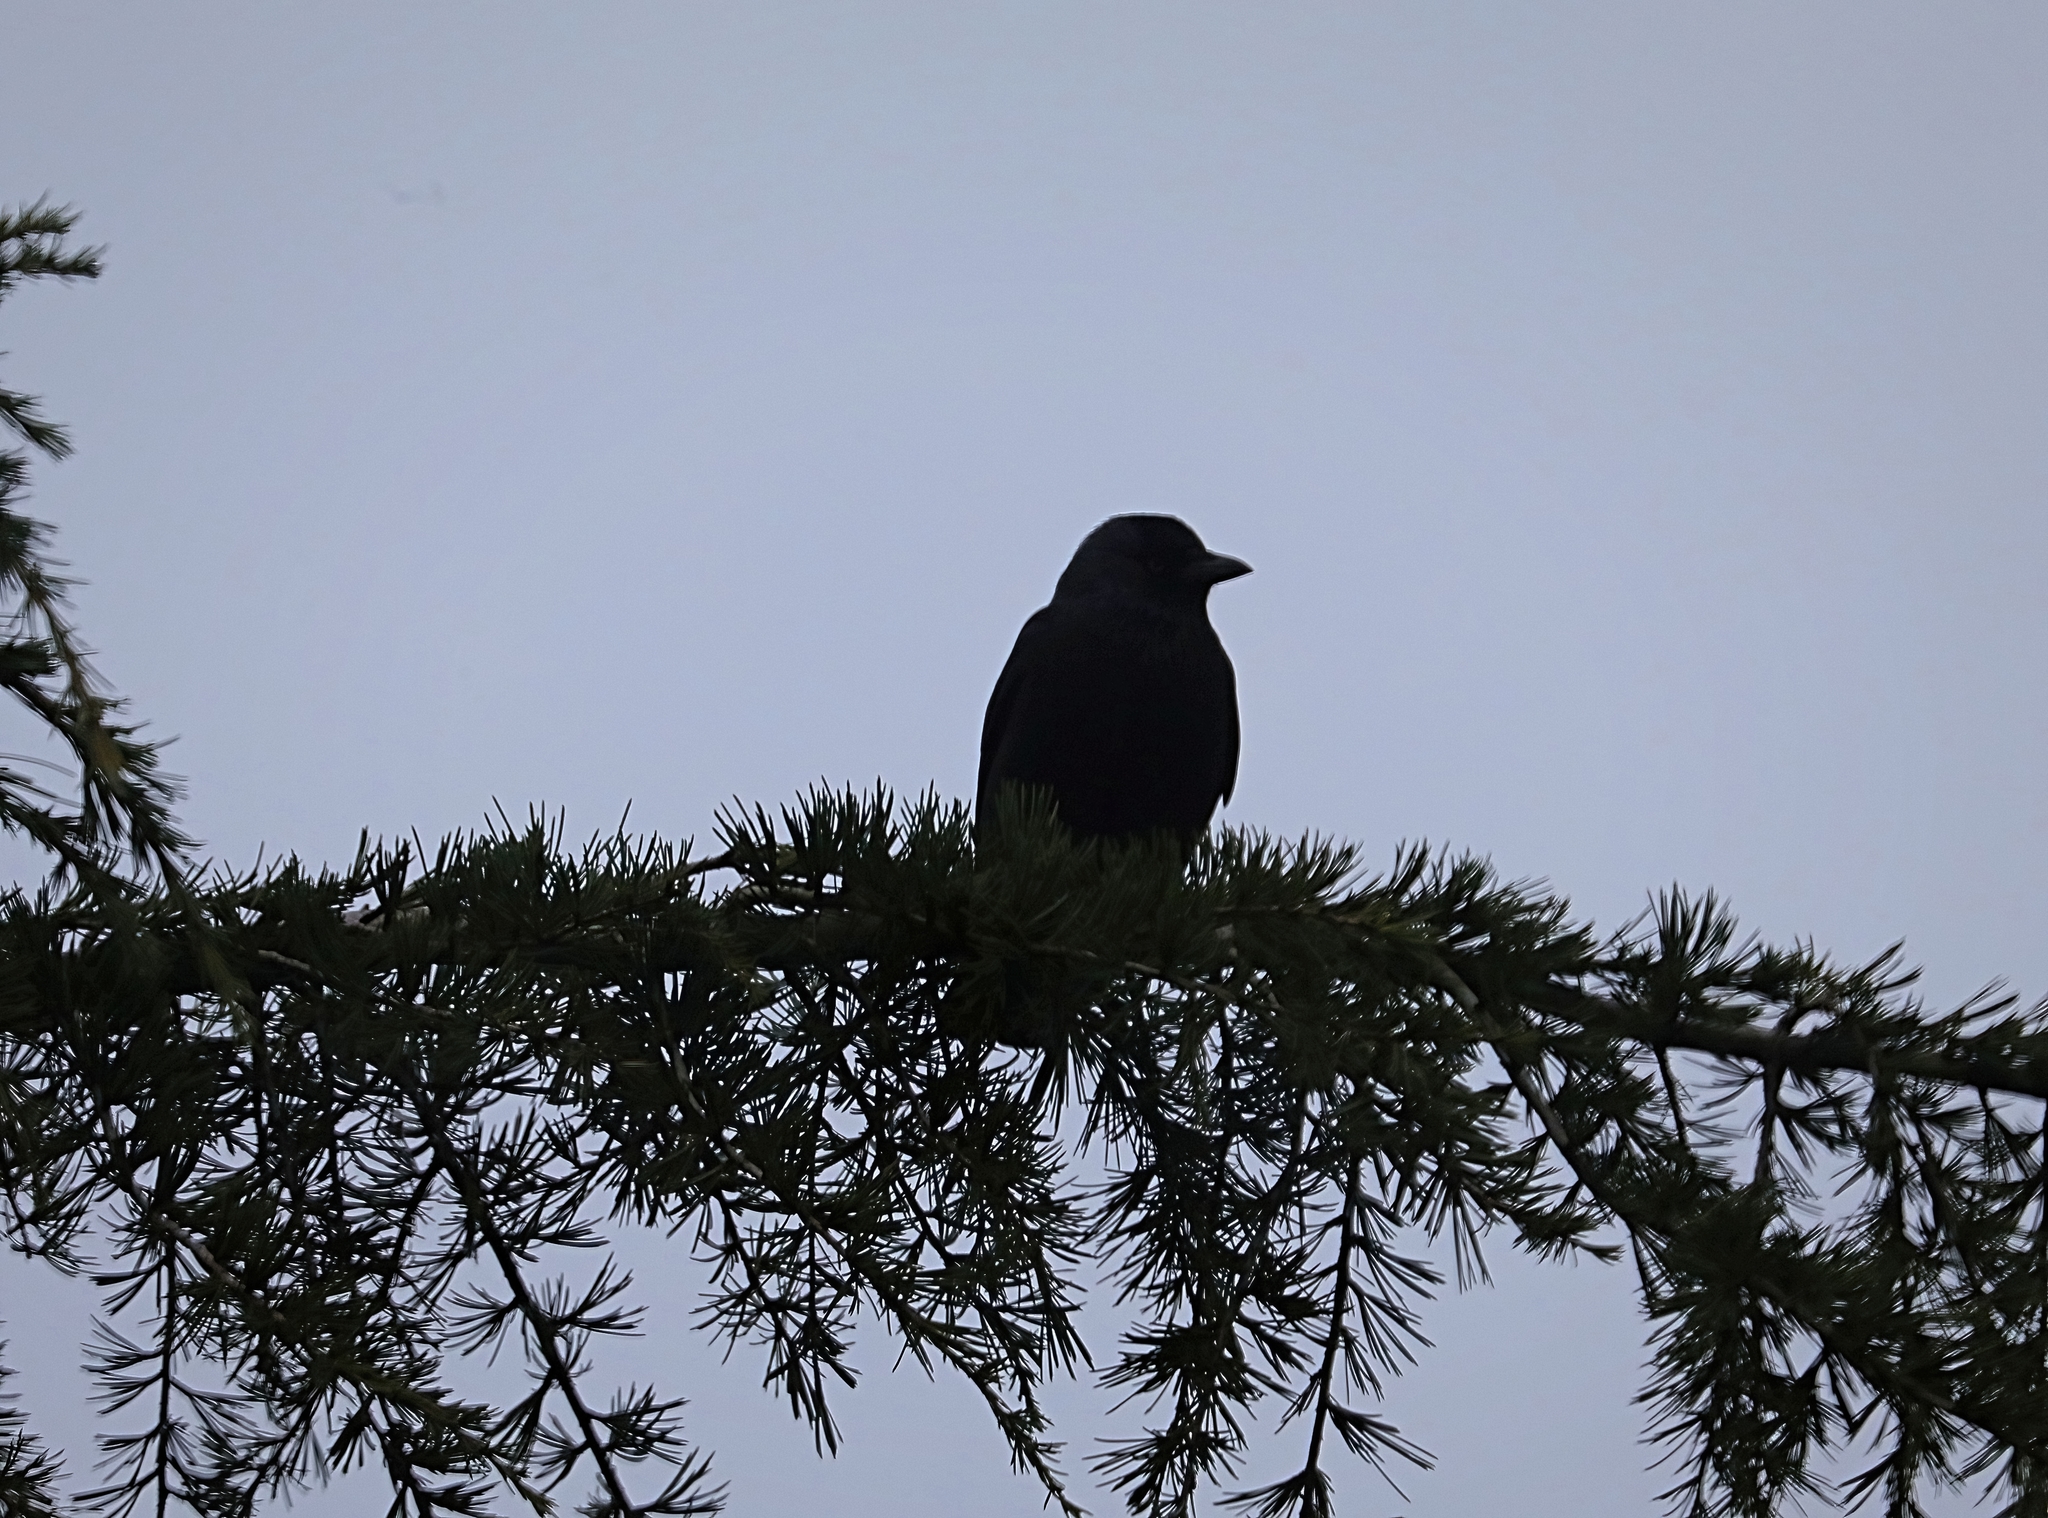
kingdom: Animalia
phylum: Chordata
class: Aves
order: Passeriformes
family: Corvidae
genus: Coloeus
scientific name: Coloeus monedula
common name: Western jackdaw
